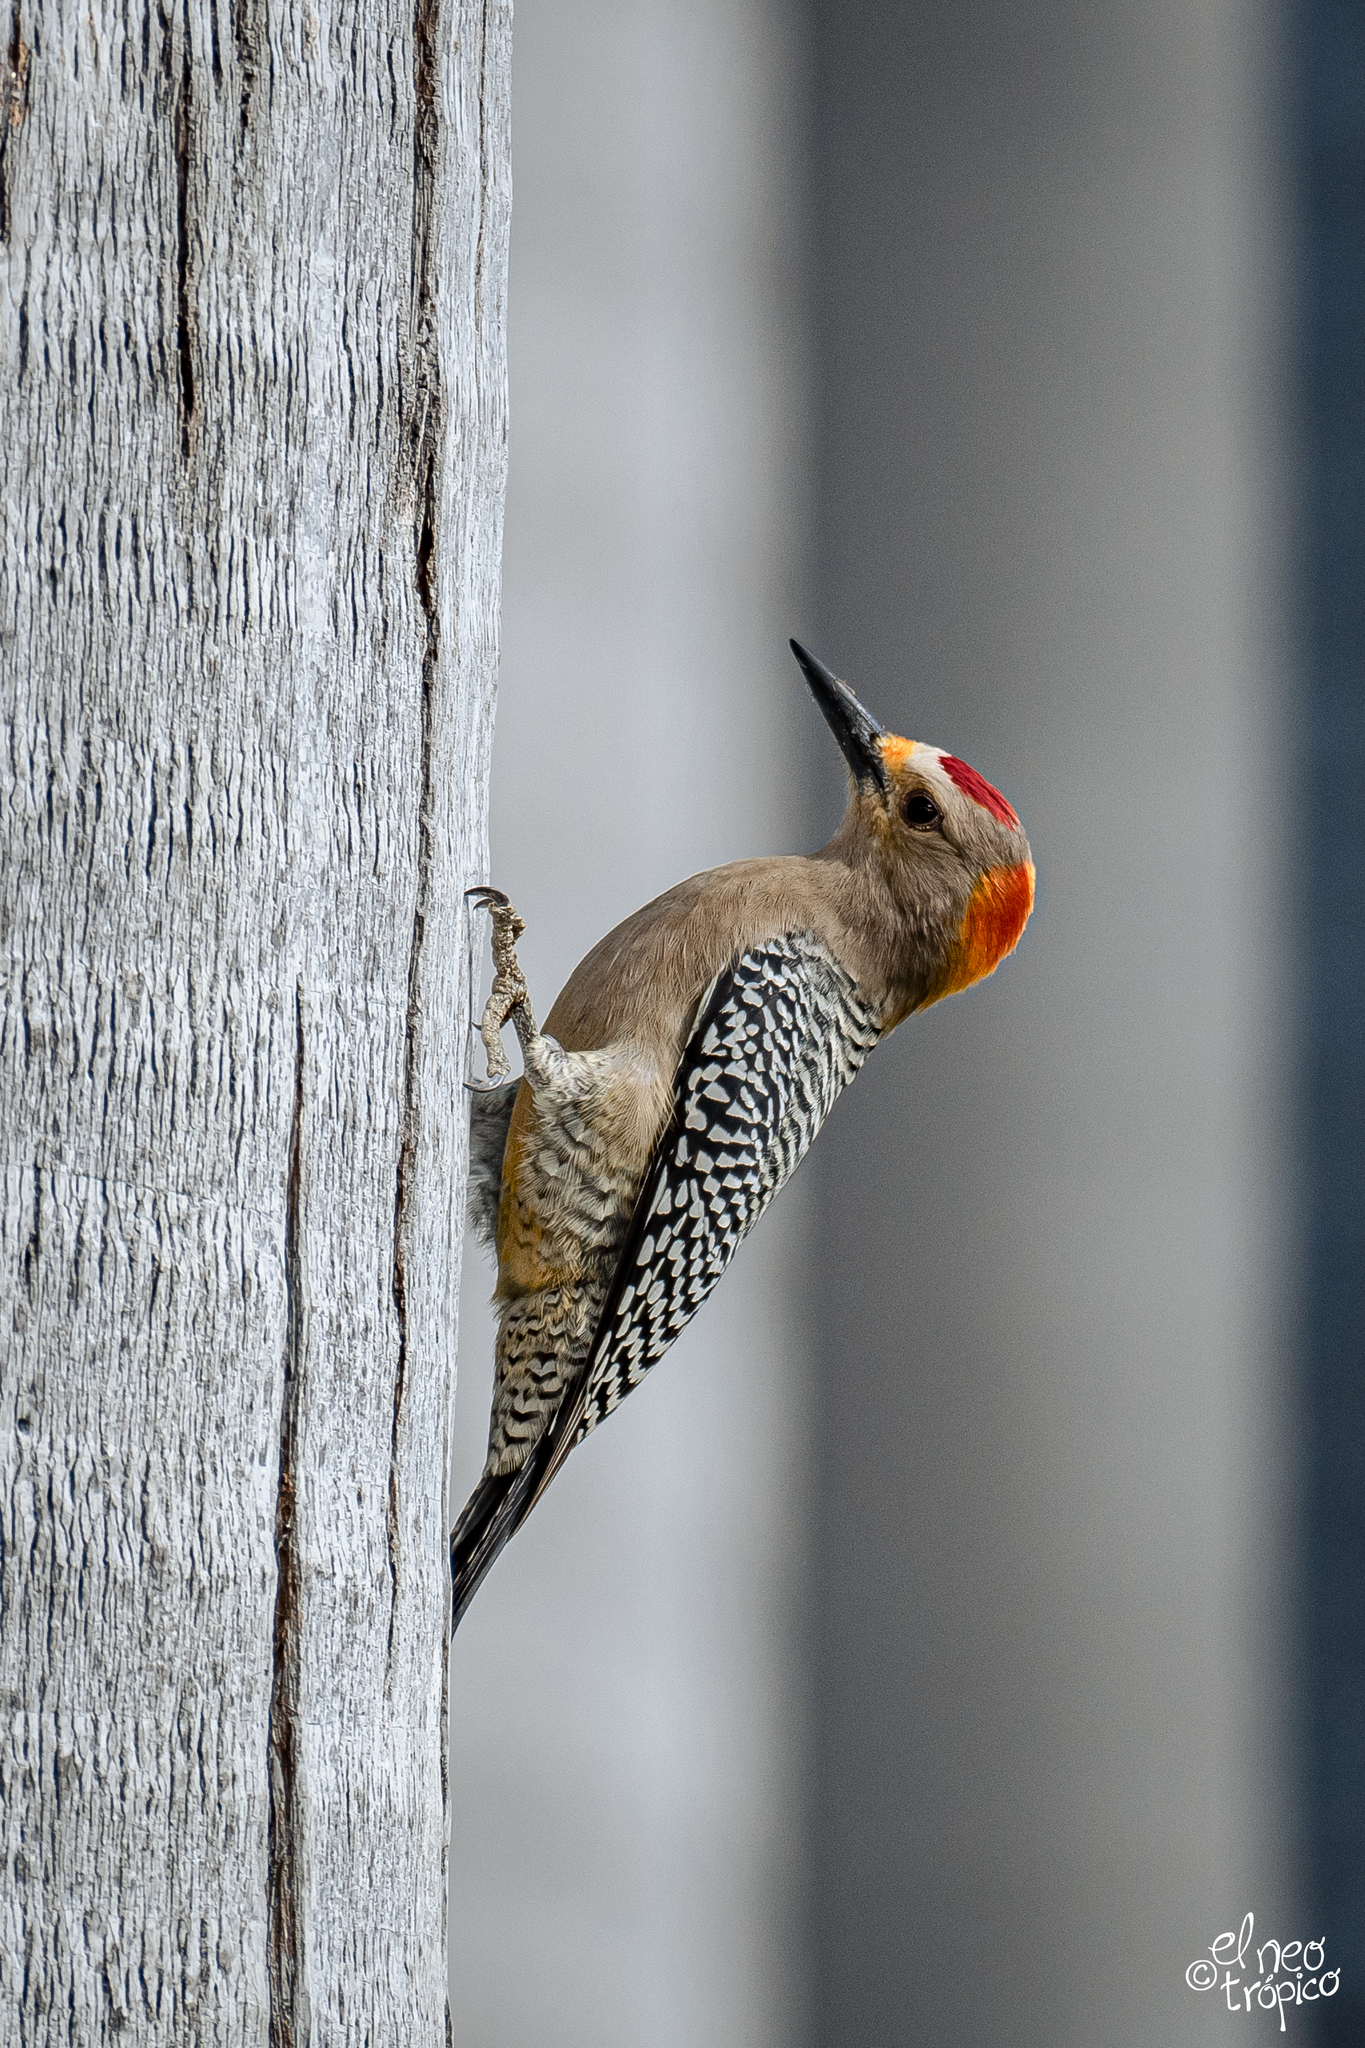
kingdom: Animalia
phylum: Chordata
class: Aves
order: Piciformes
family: Picidae
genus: Melanerpes
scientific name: Melanerpes aurifrons
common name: Golden-fronted woodpecker
